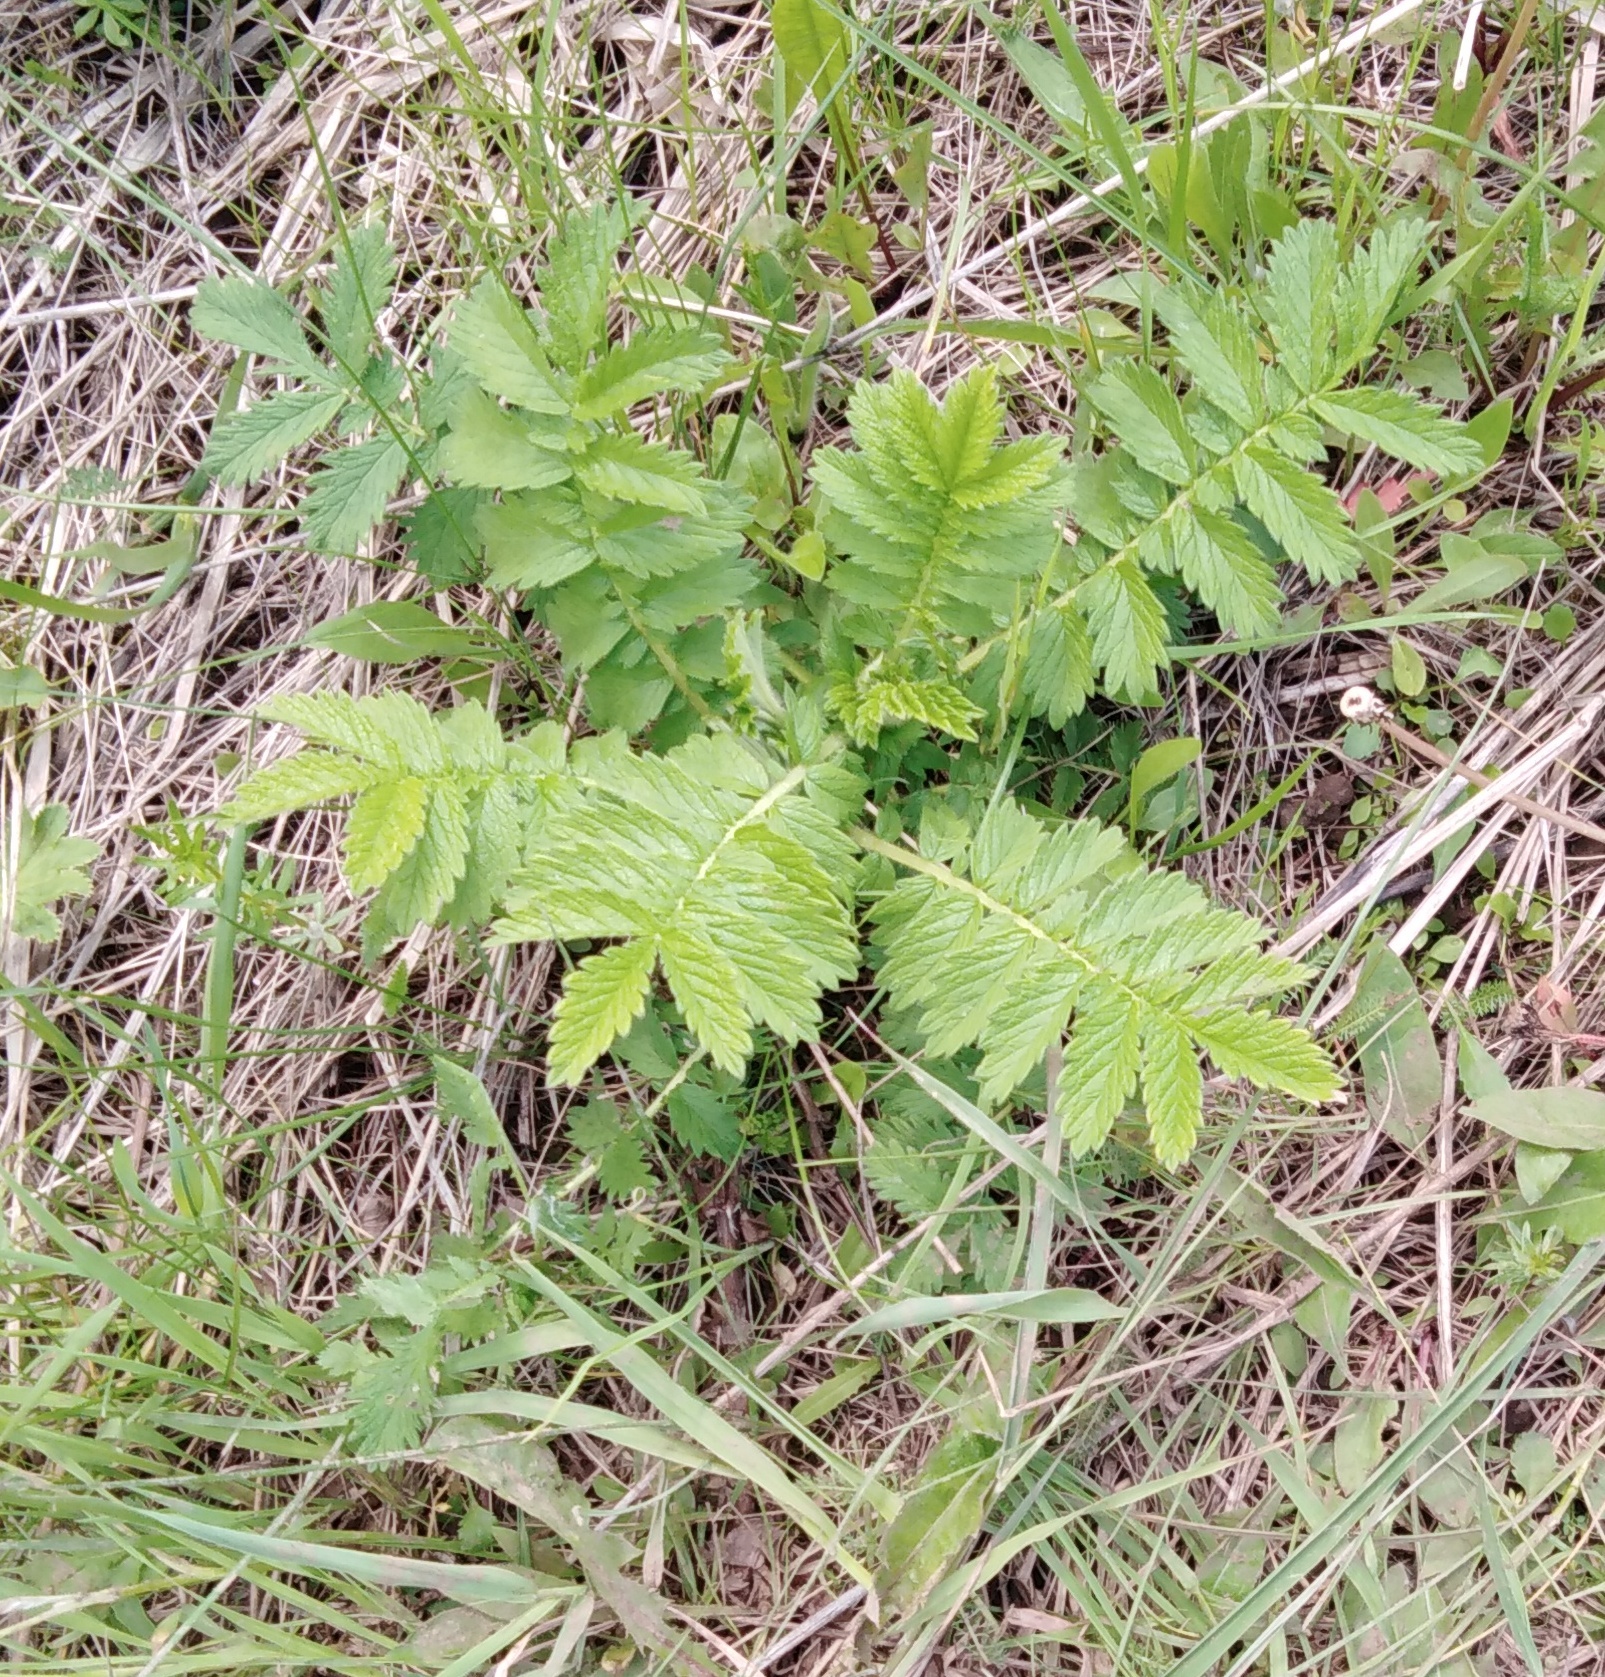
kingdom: Plantae
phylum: Tracheophyta
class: Magnoliopsida
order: Rosales
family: Rosaceae
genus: Agrimonia
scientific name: Agrimonia eupatoria
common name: Agrimony
